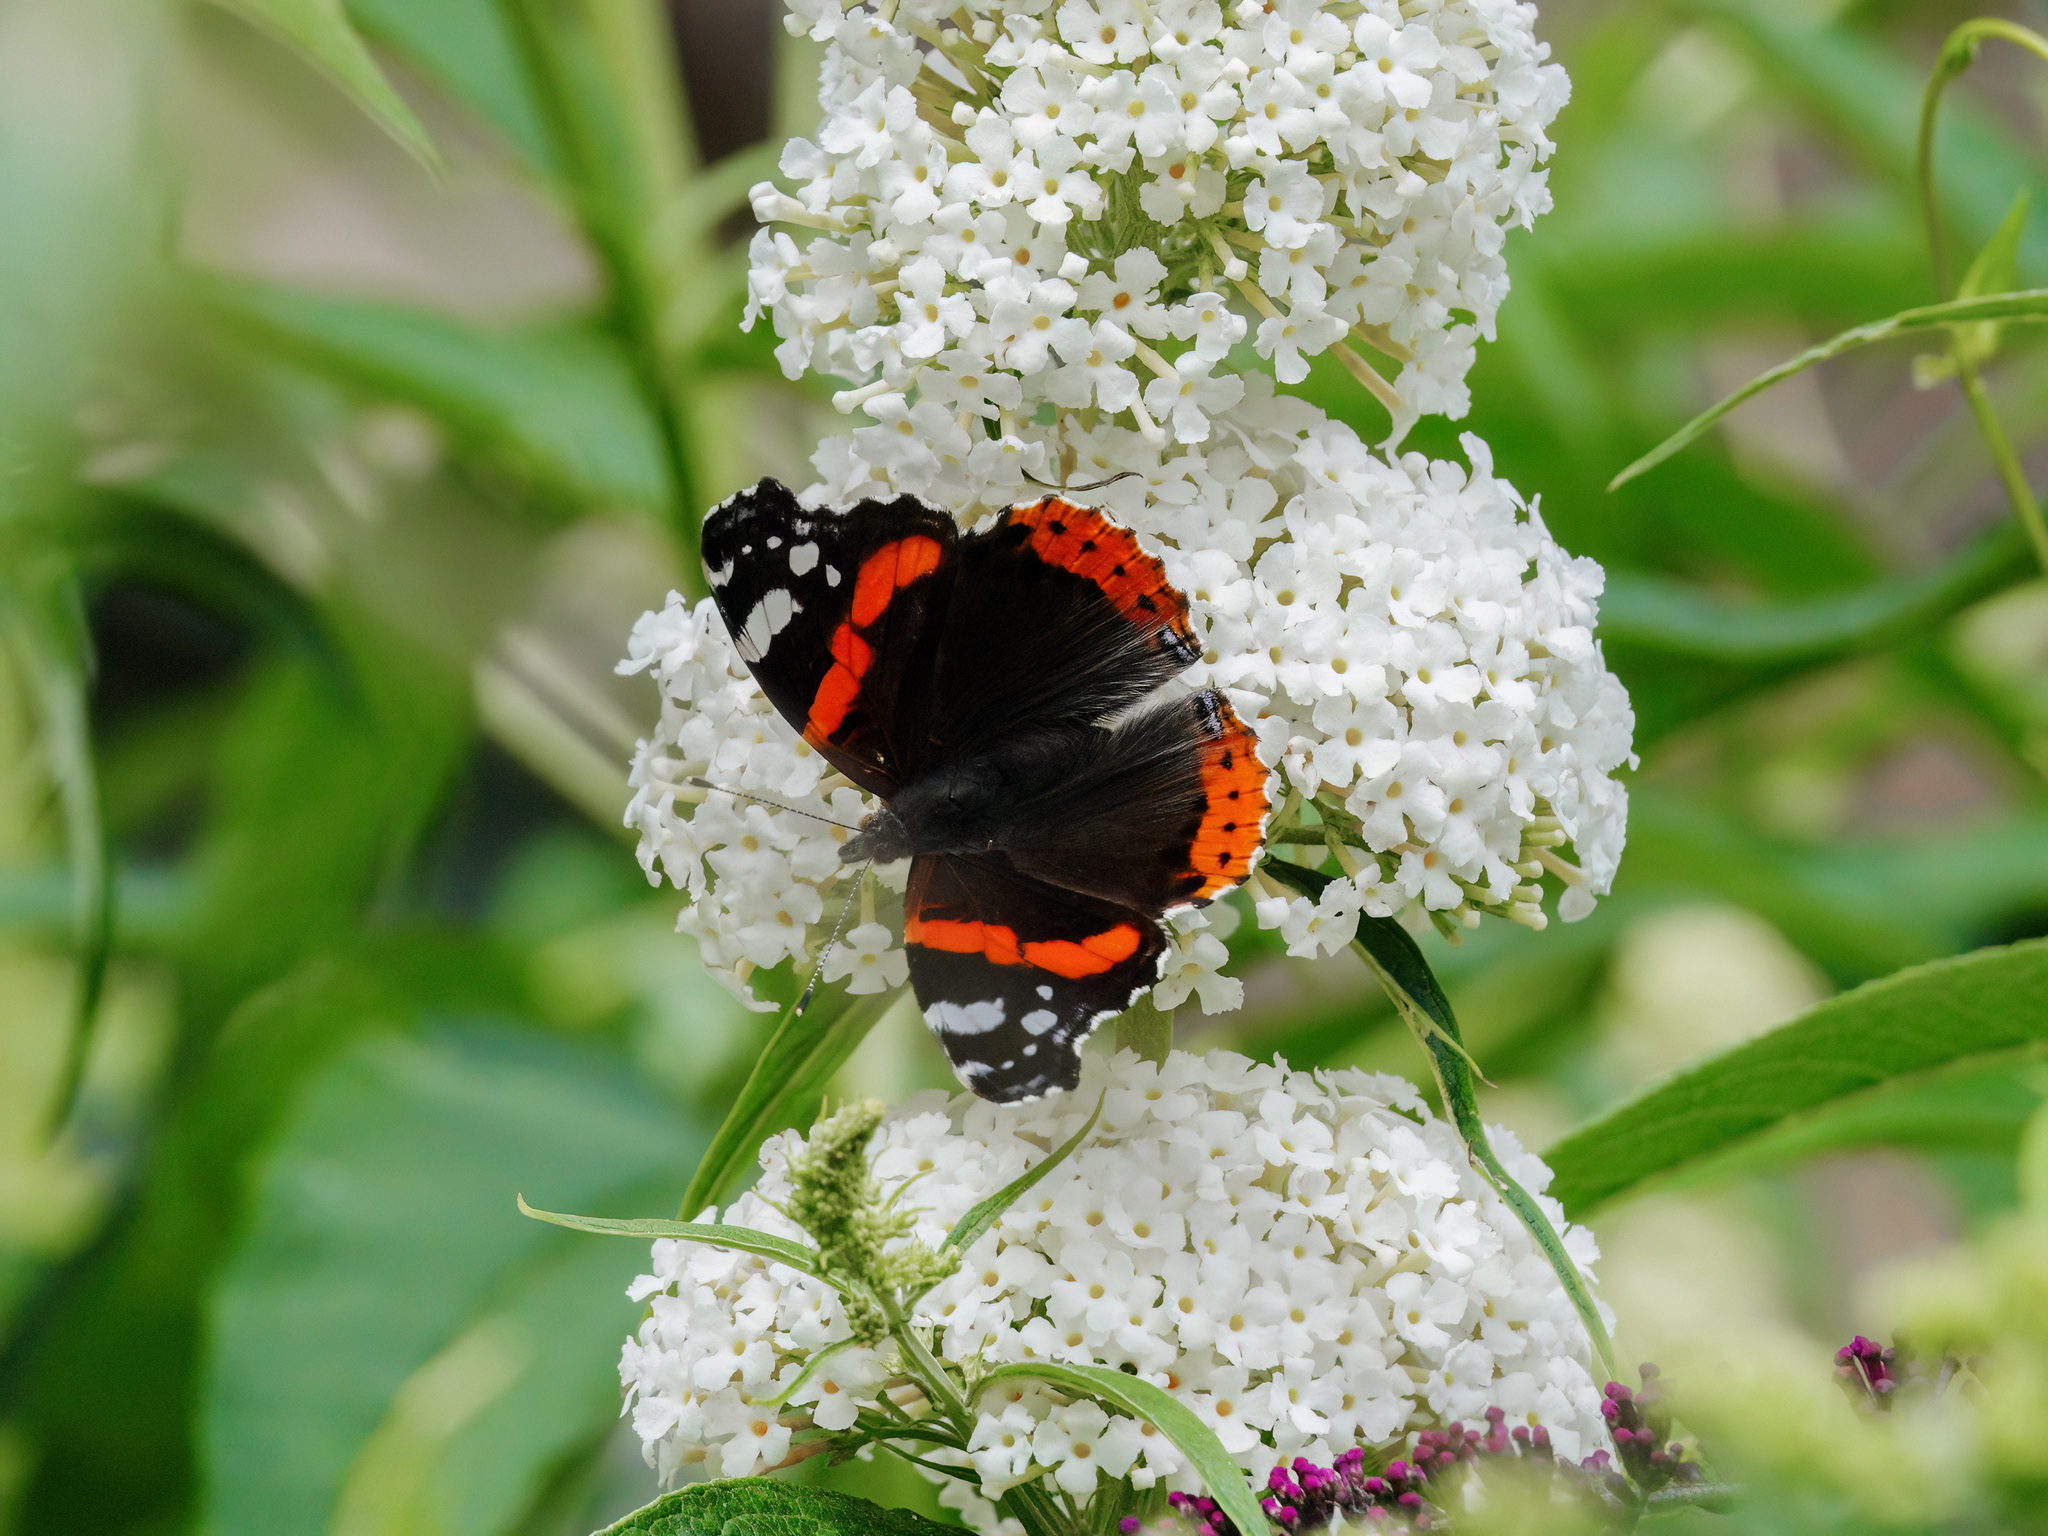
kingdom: Animalia
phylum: Arthropoda
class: Insecta
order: Lepidoptera
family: Nymphalidae
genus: Vanessa
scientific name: Vanessa atalanta
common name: Red admiral
